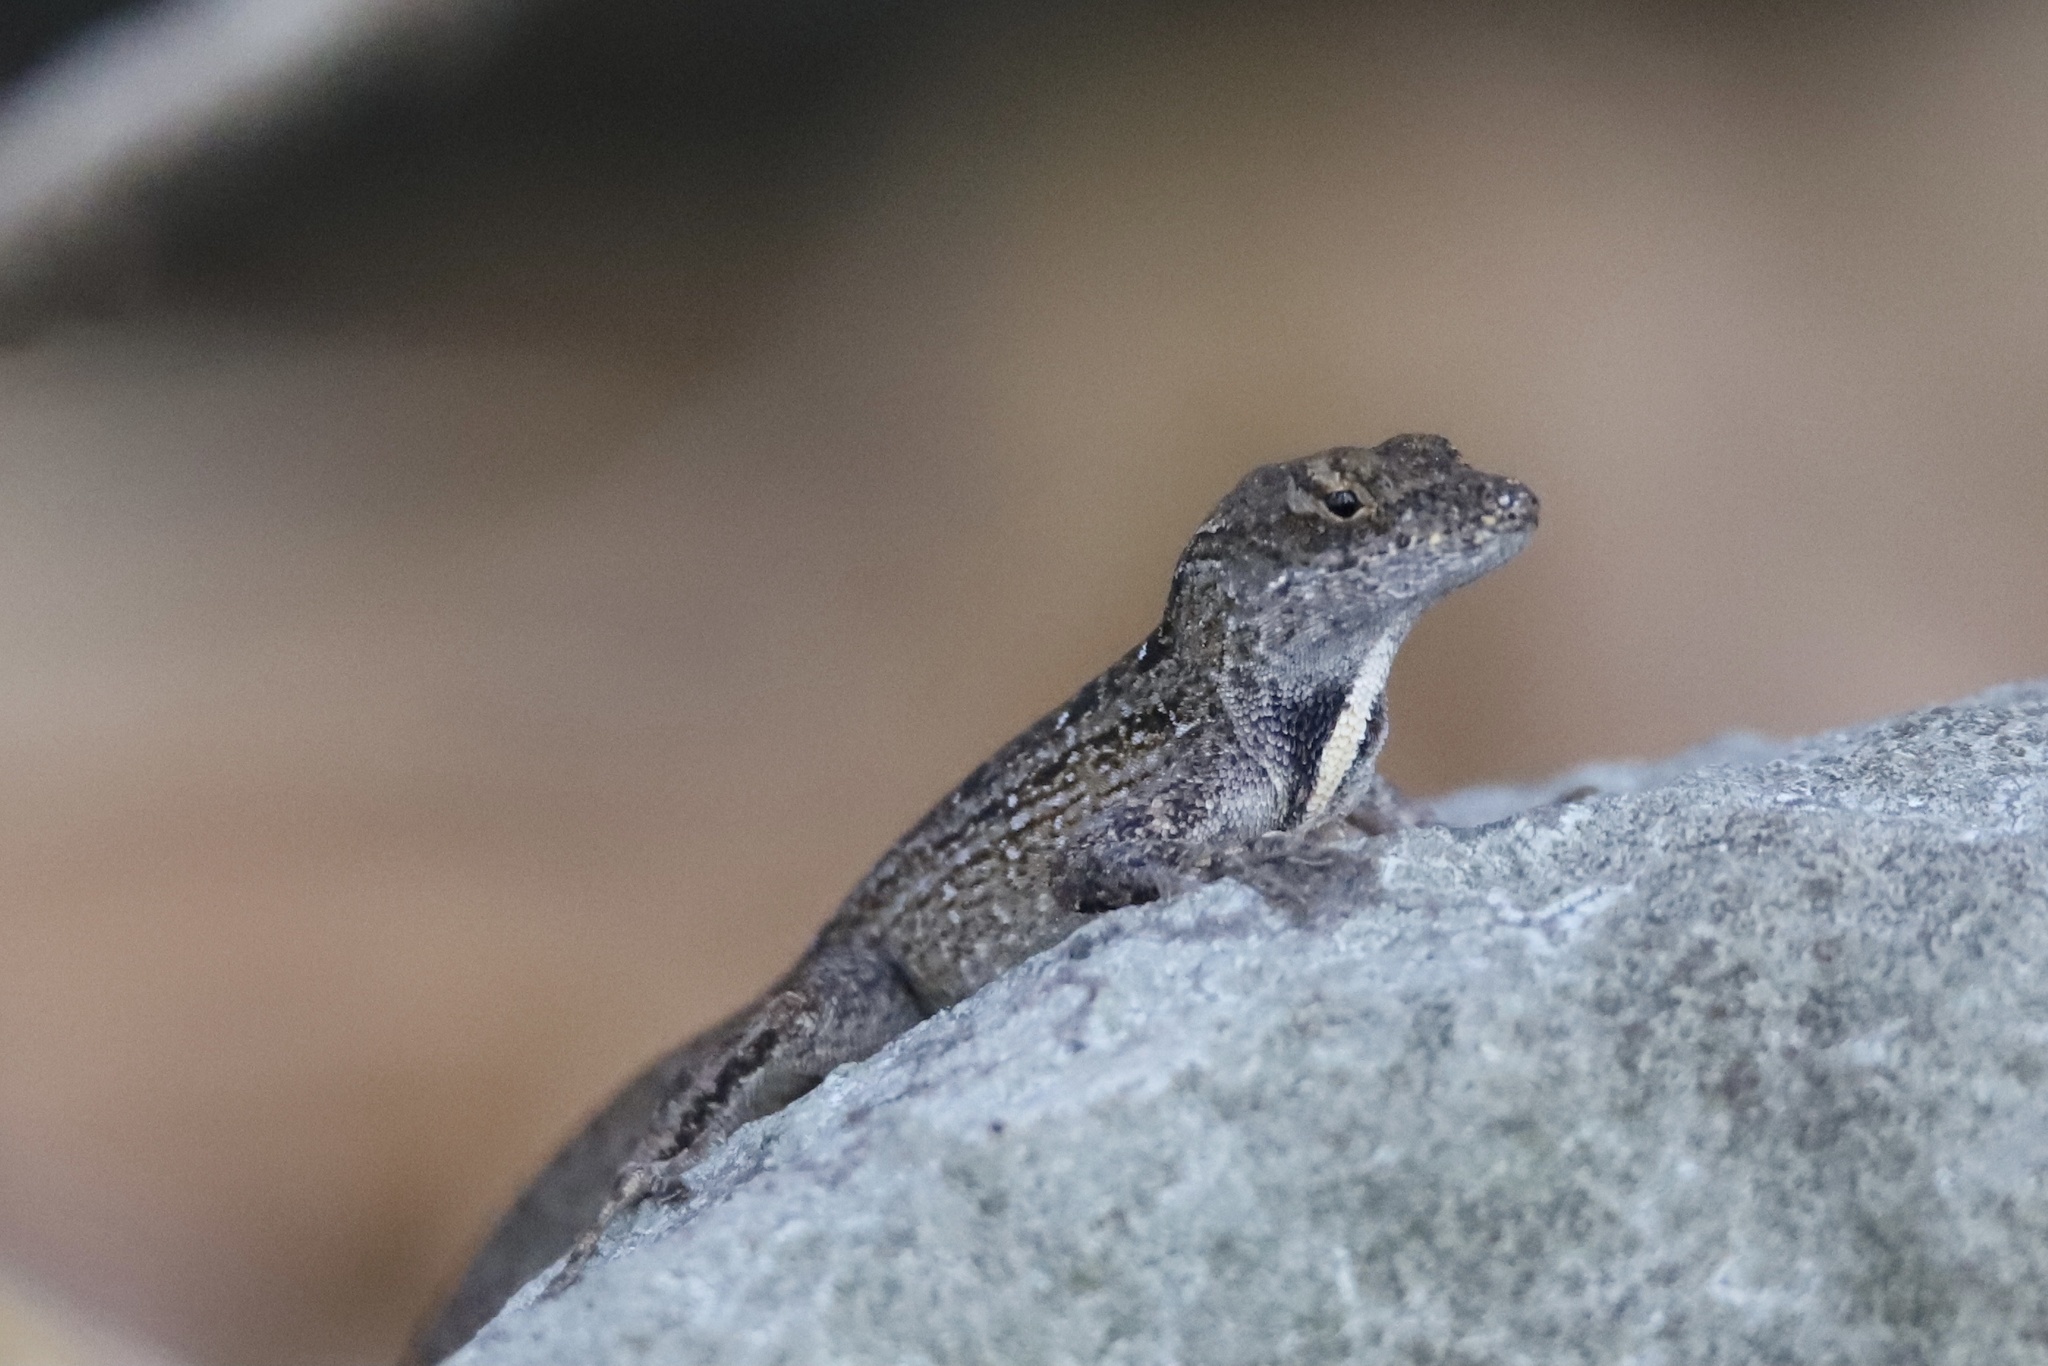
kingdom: Animalia
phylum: Chordata
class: Squamata
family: Dactyloidae
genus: Anolis
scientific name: Anolis sagrei
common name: Brown anole
